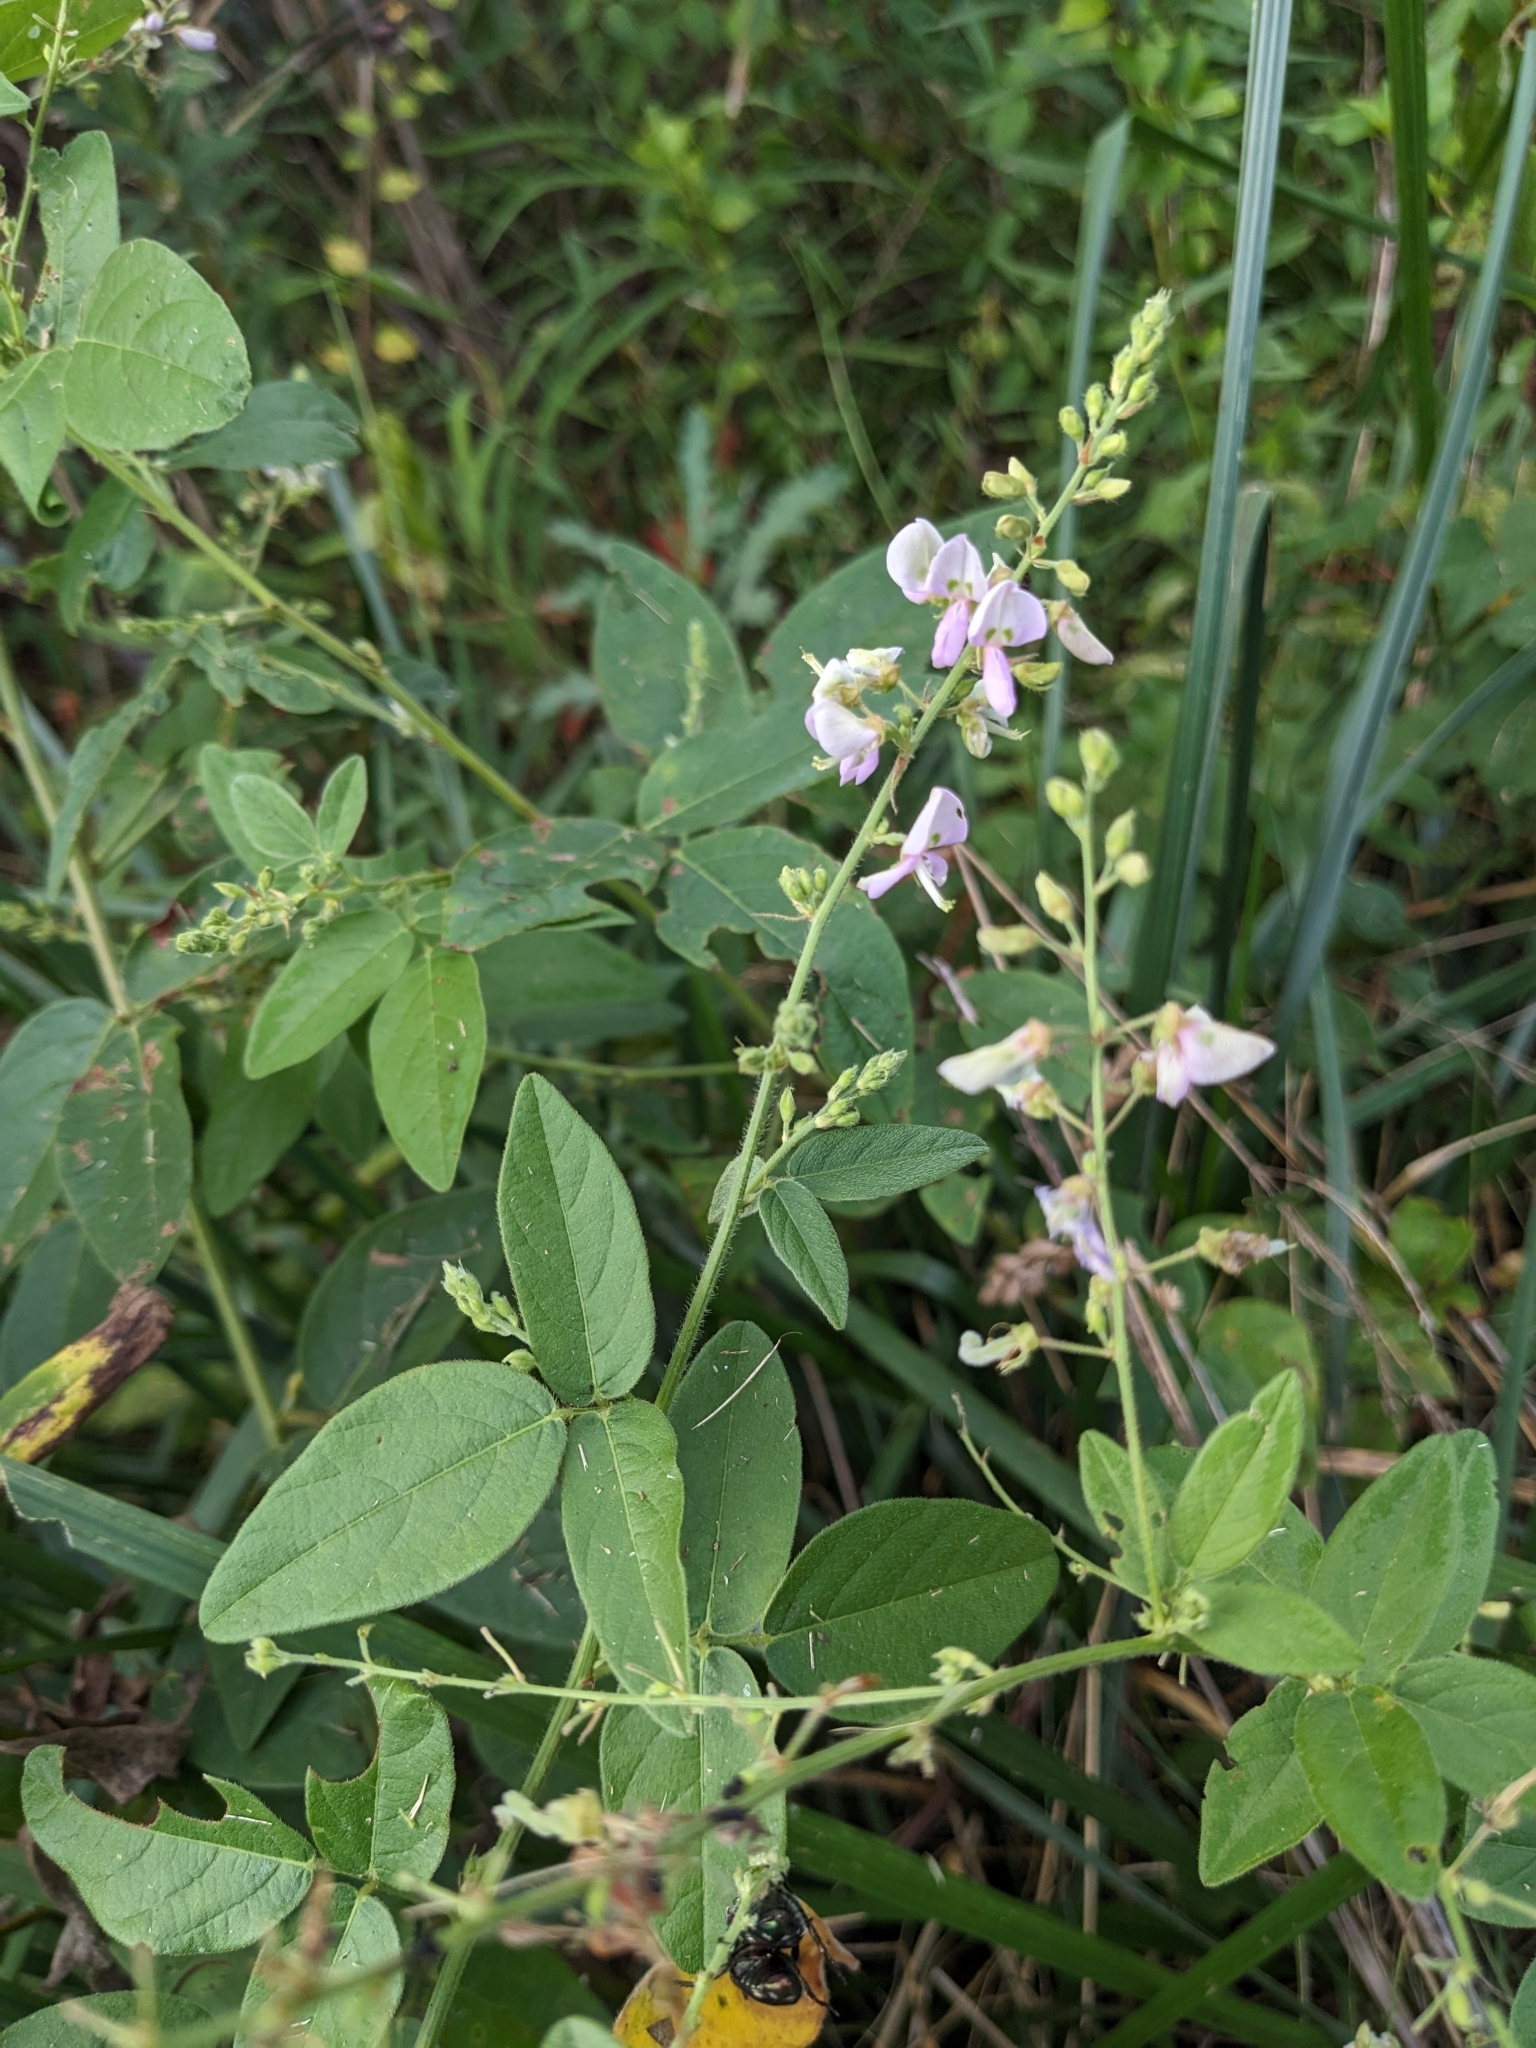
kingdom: Plantae
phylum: Tracheophyta
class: Magnoliopsida
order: Fabales
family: Fabaceae
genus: Desmodium
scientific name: Desmodium glabellum
